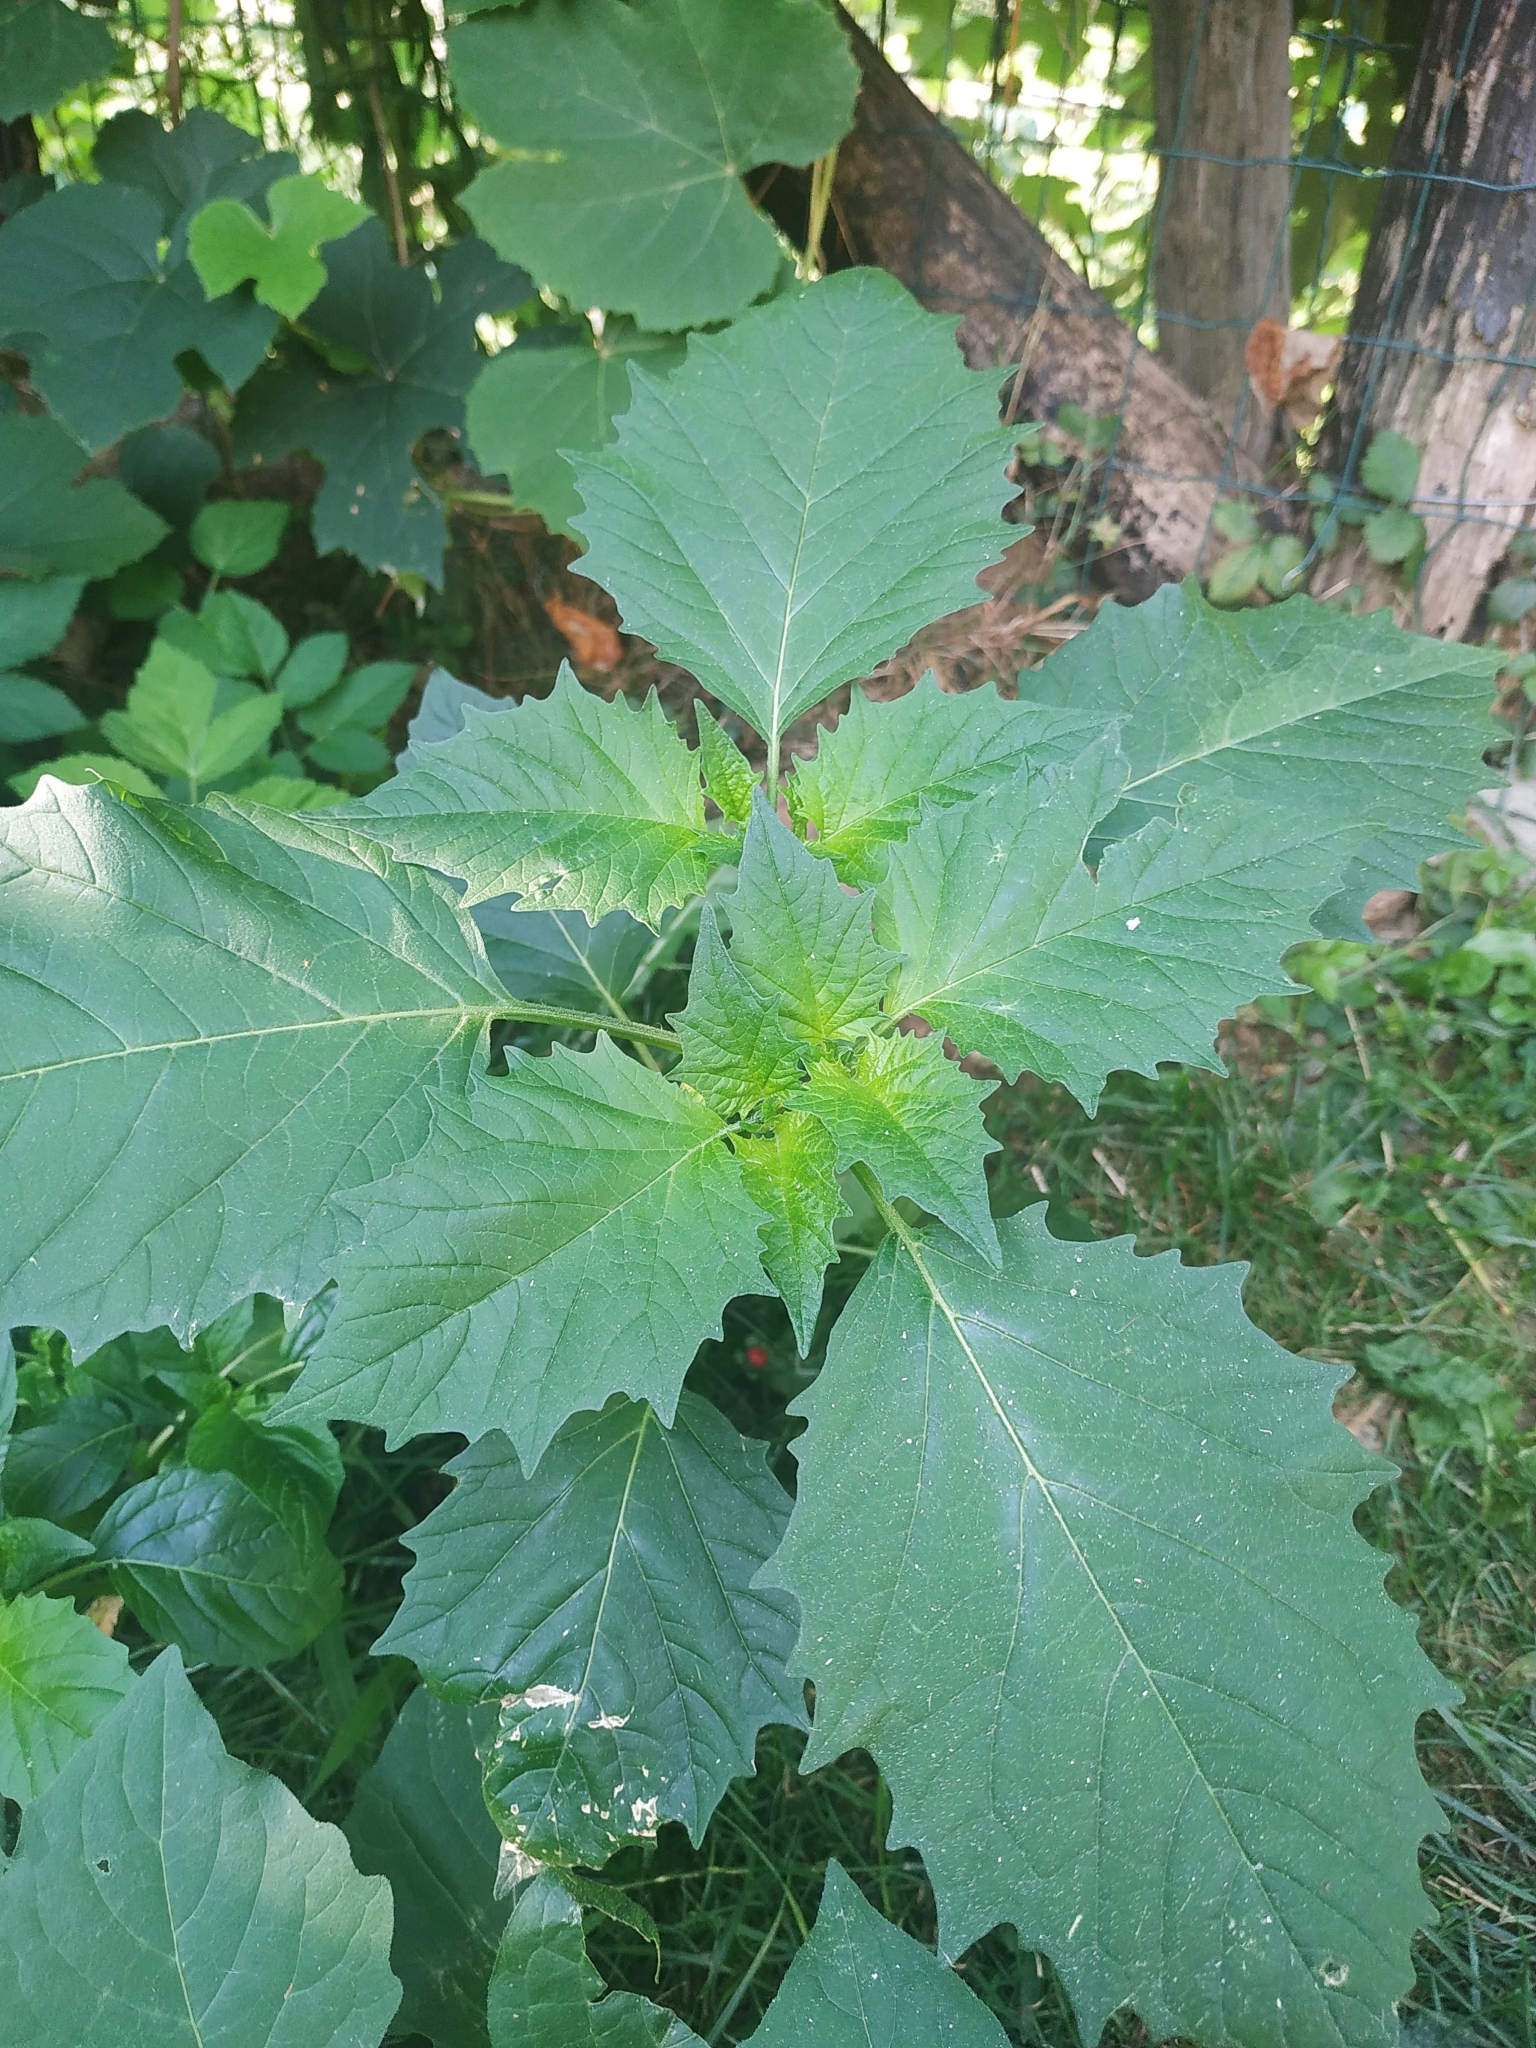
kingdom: Plantae
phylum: Tracheophyta
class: Magnoliopsida
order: Solanales
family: Solanaceae
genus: Physalis
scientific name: Physalis philadelphica
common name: Husk-tomato
